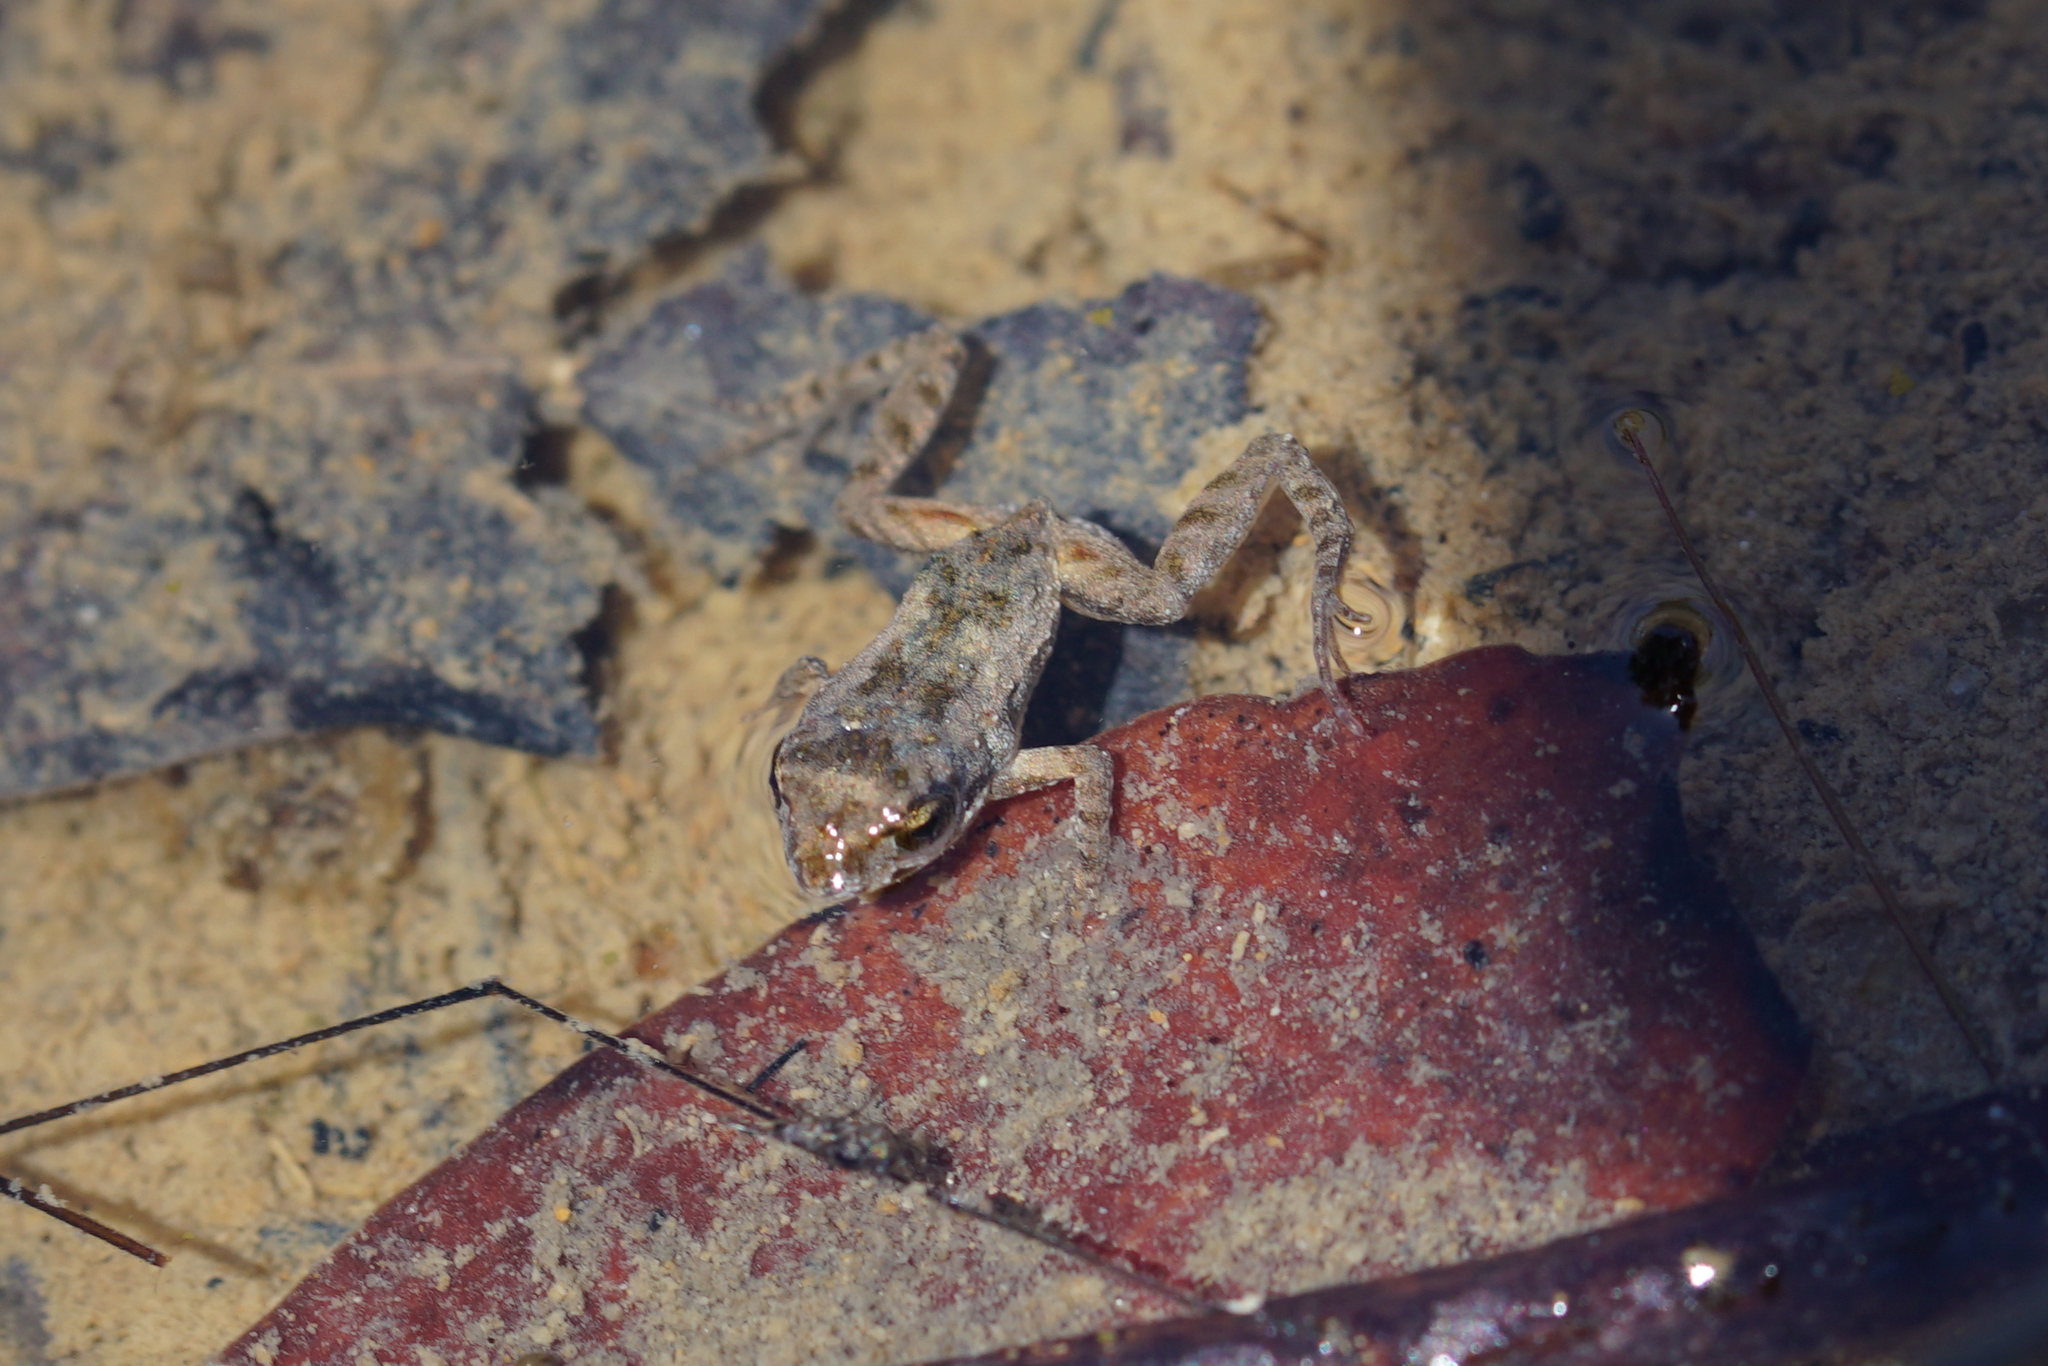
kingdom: Animalia
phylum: Chordata
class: Amphibia
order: Anura
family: Myobatrachidae
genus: Crinia
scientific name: Crinia signifera
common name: Brown froglet
